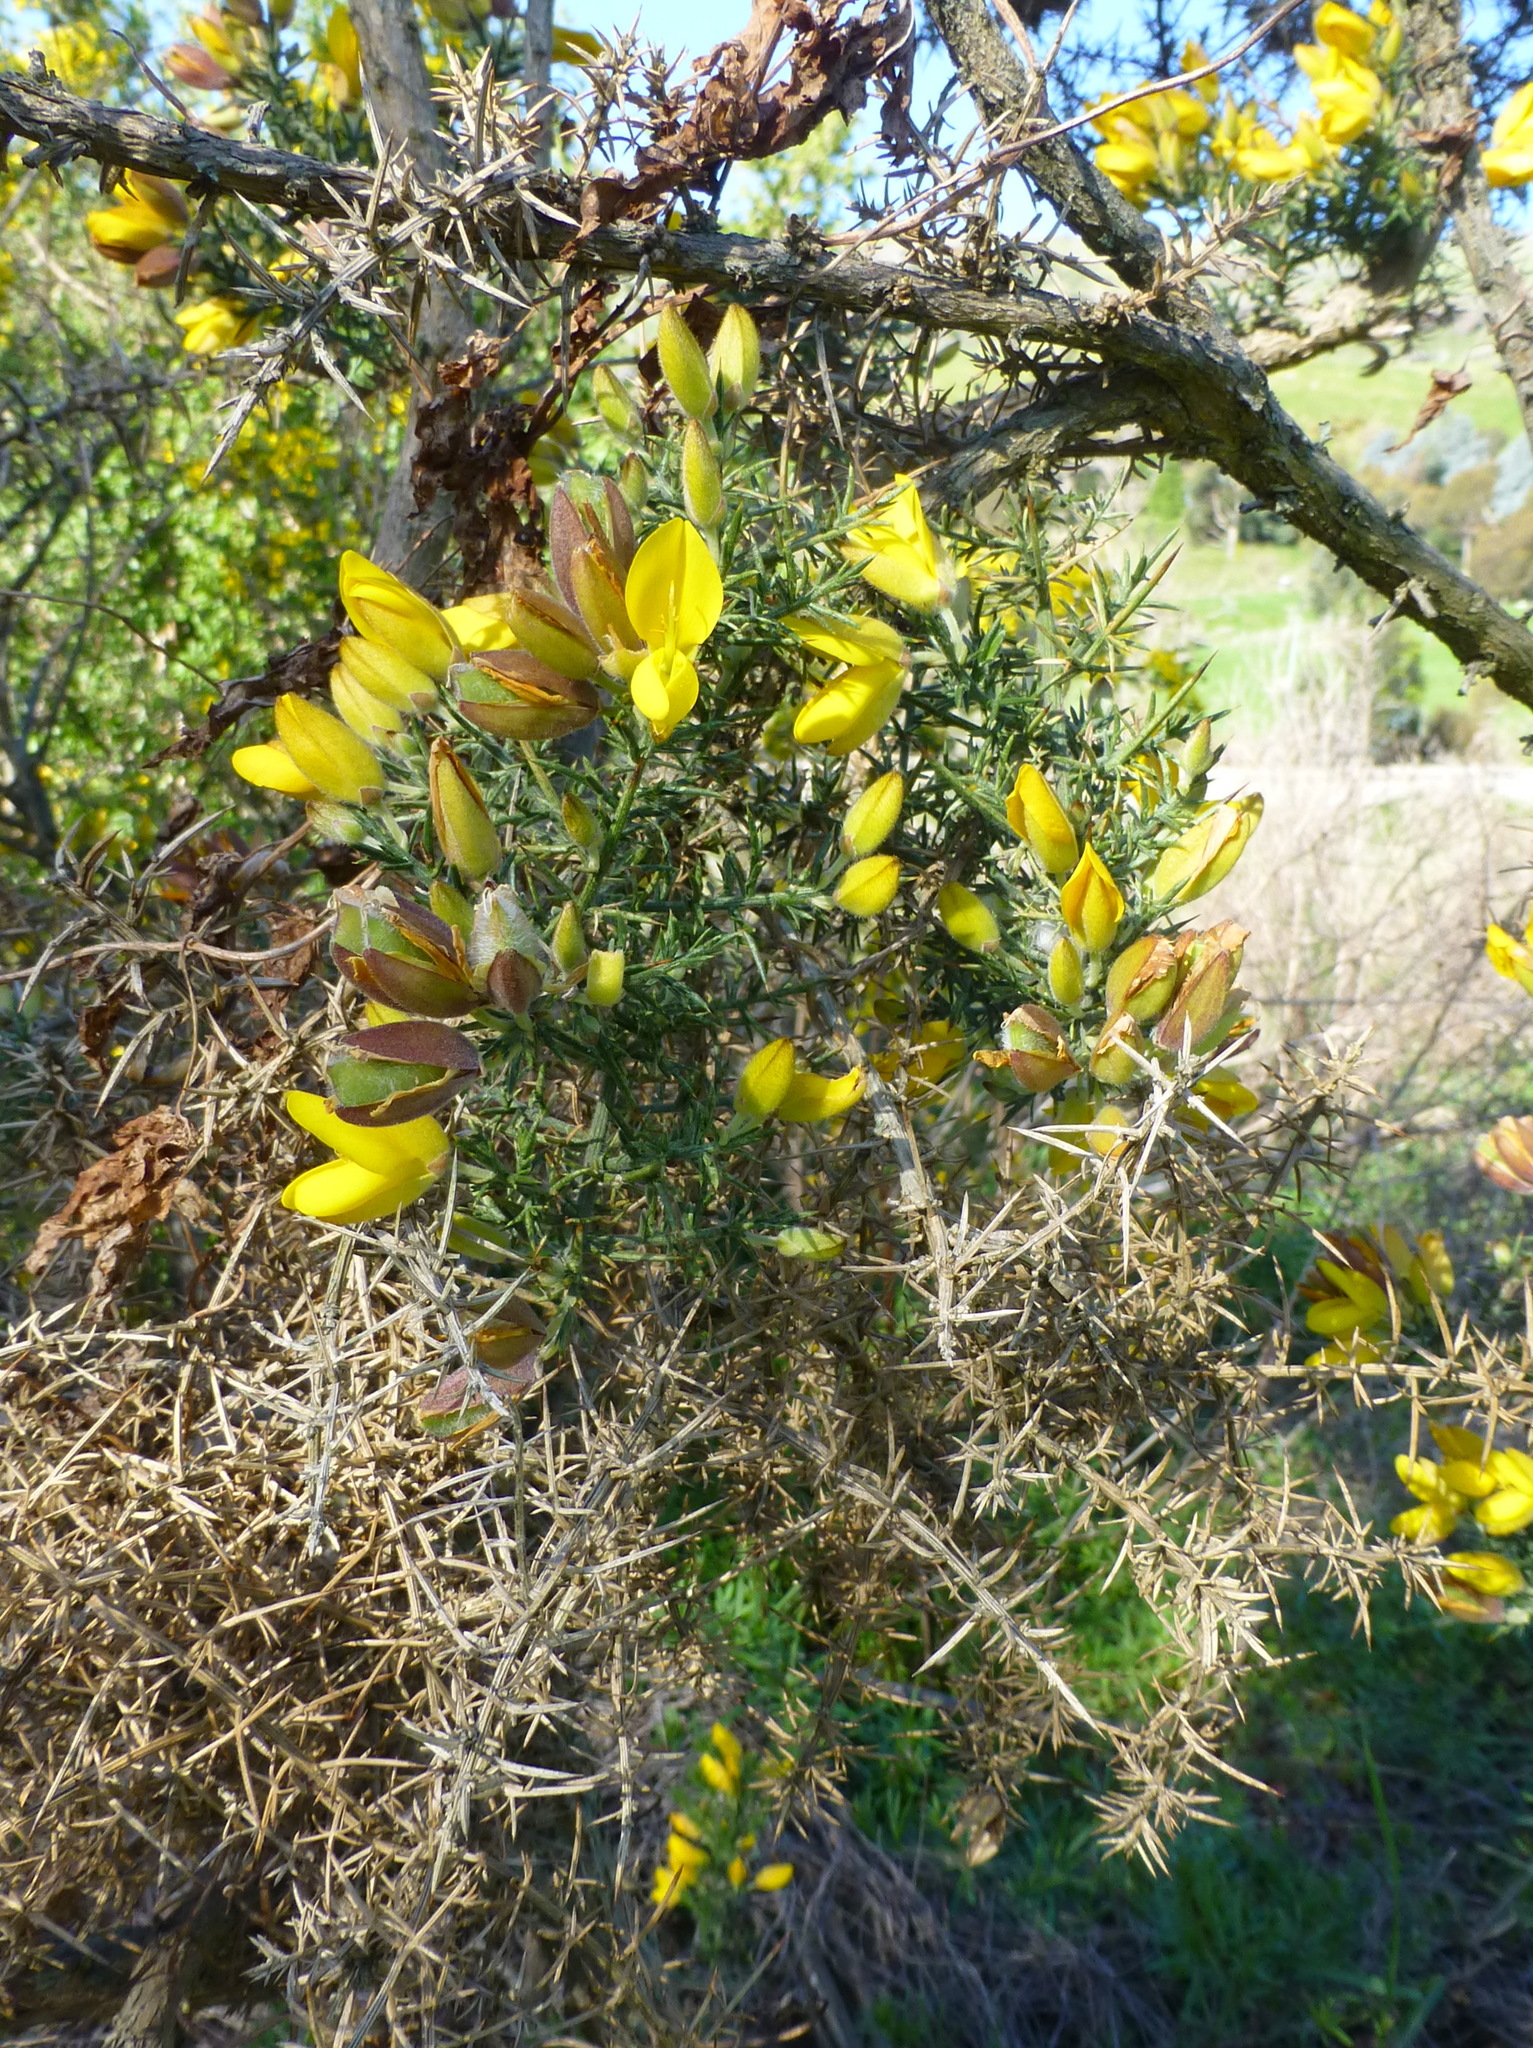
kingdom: Plantae
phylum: Tracheophyta
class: Magnoliopsida
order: Fabales
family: Fabaceae
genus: Ulex
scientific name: Ulex europaeus
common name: Common gorse
